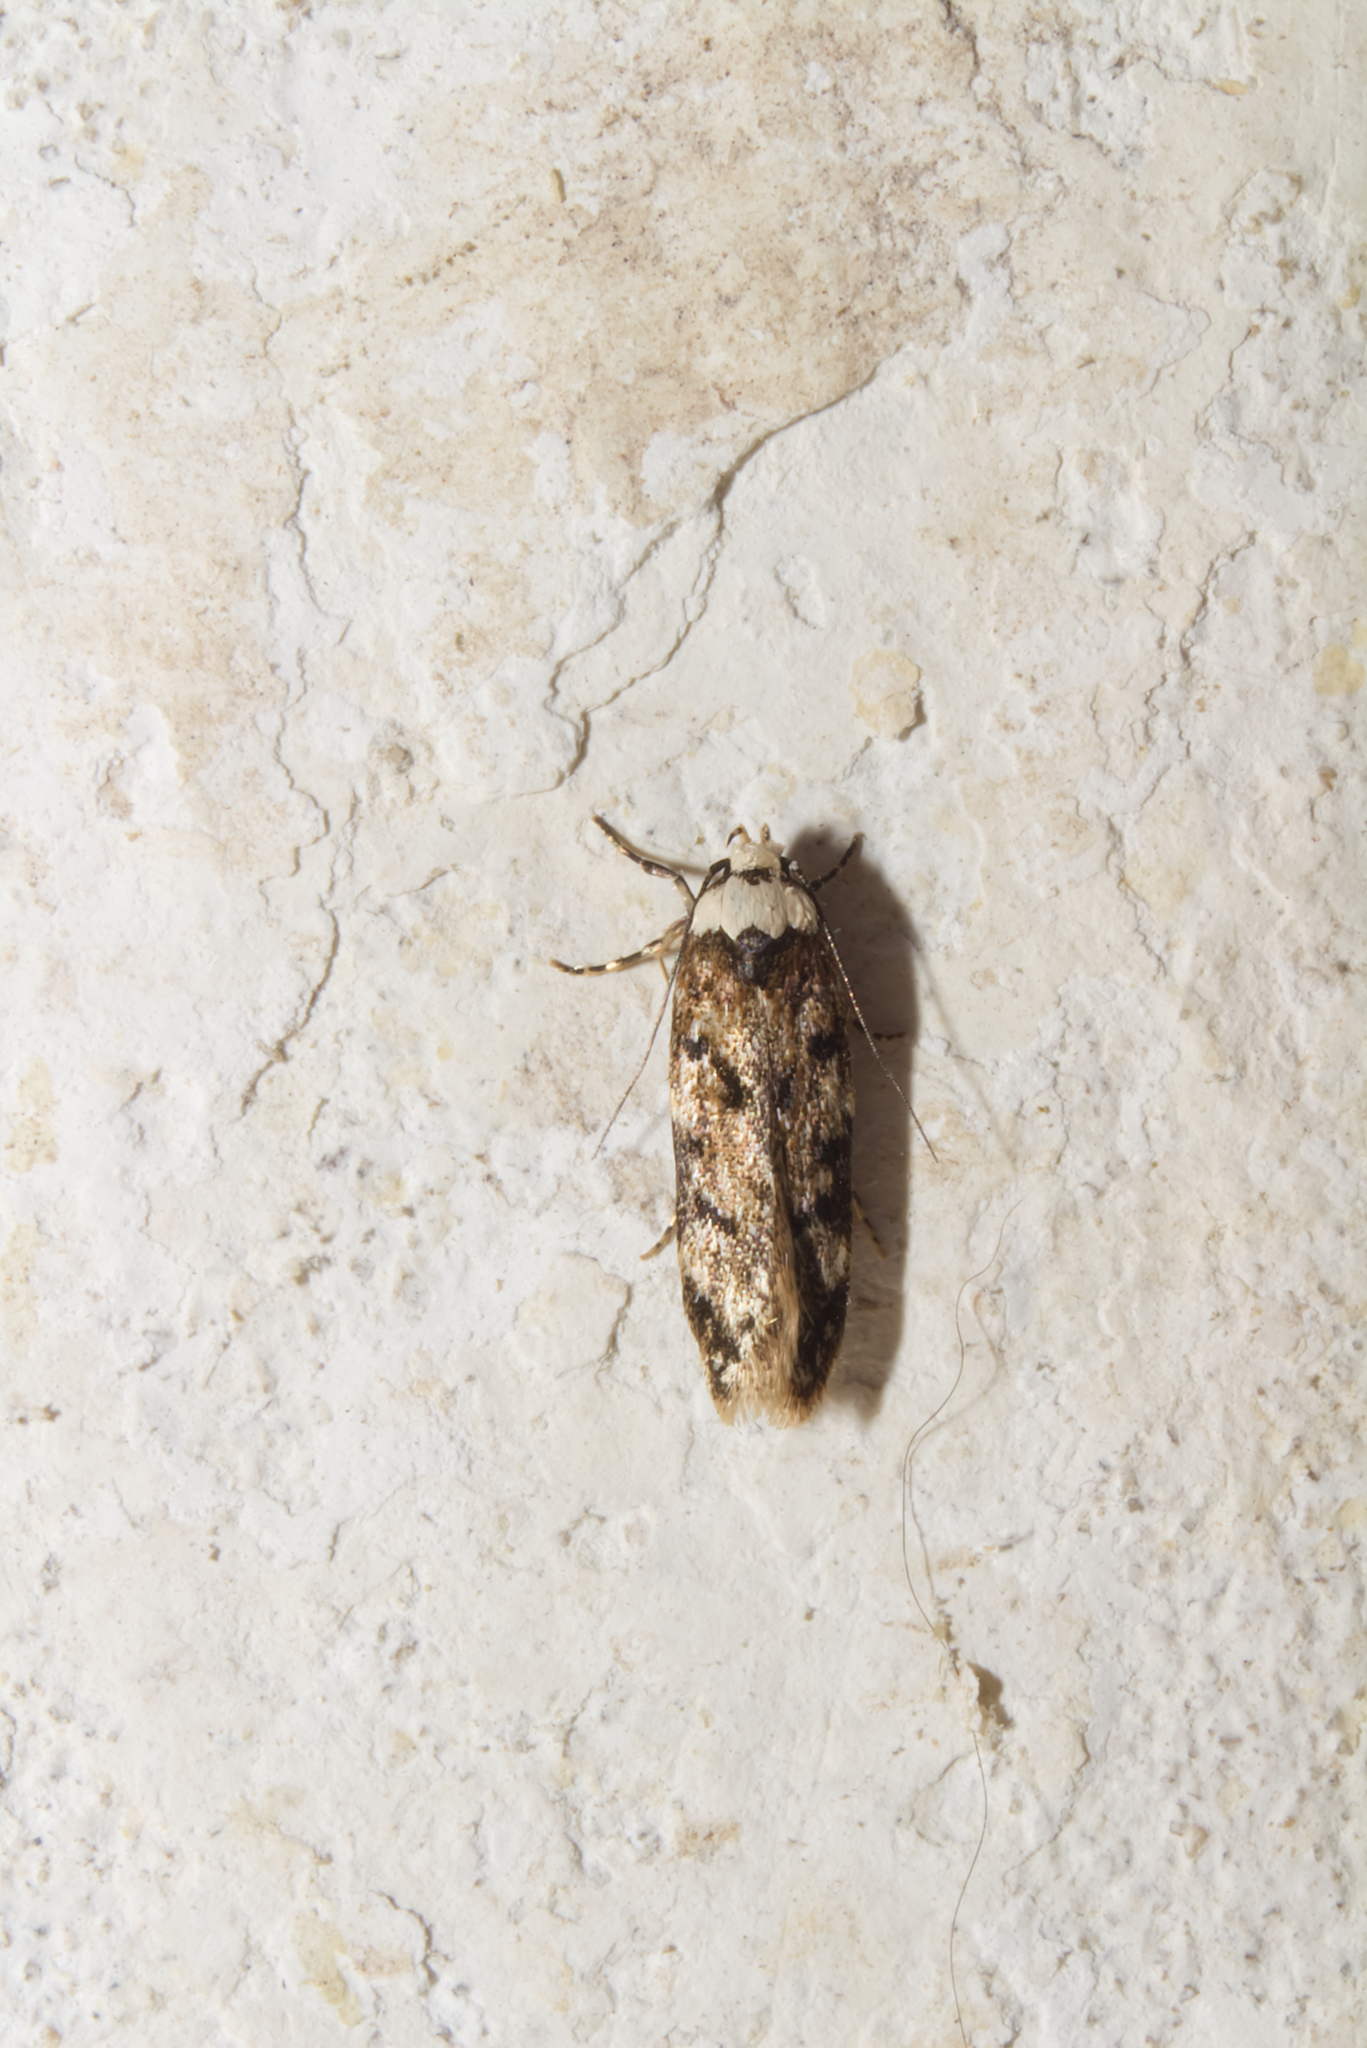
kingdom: Animalia
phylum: Arthropoda
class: Insecta
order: Lepidoptera
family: Oecophoridae
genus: Endrosis
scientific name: Endrosis sarcitrella
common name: White-shouldered house moth
